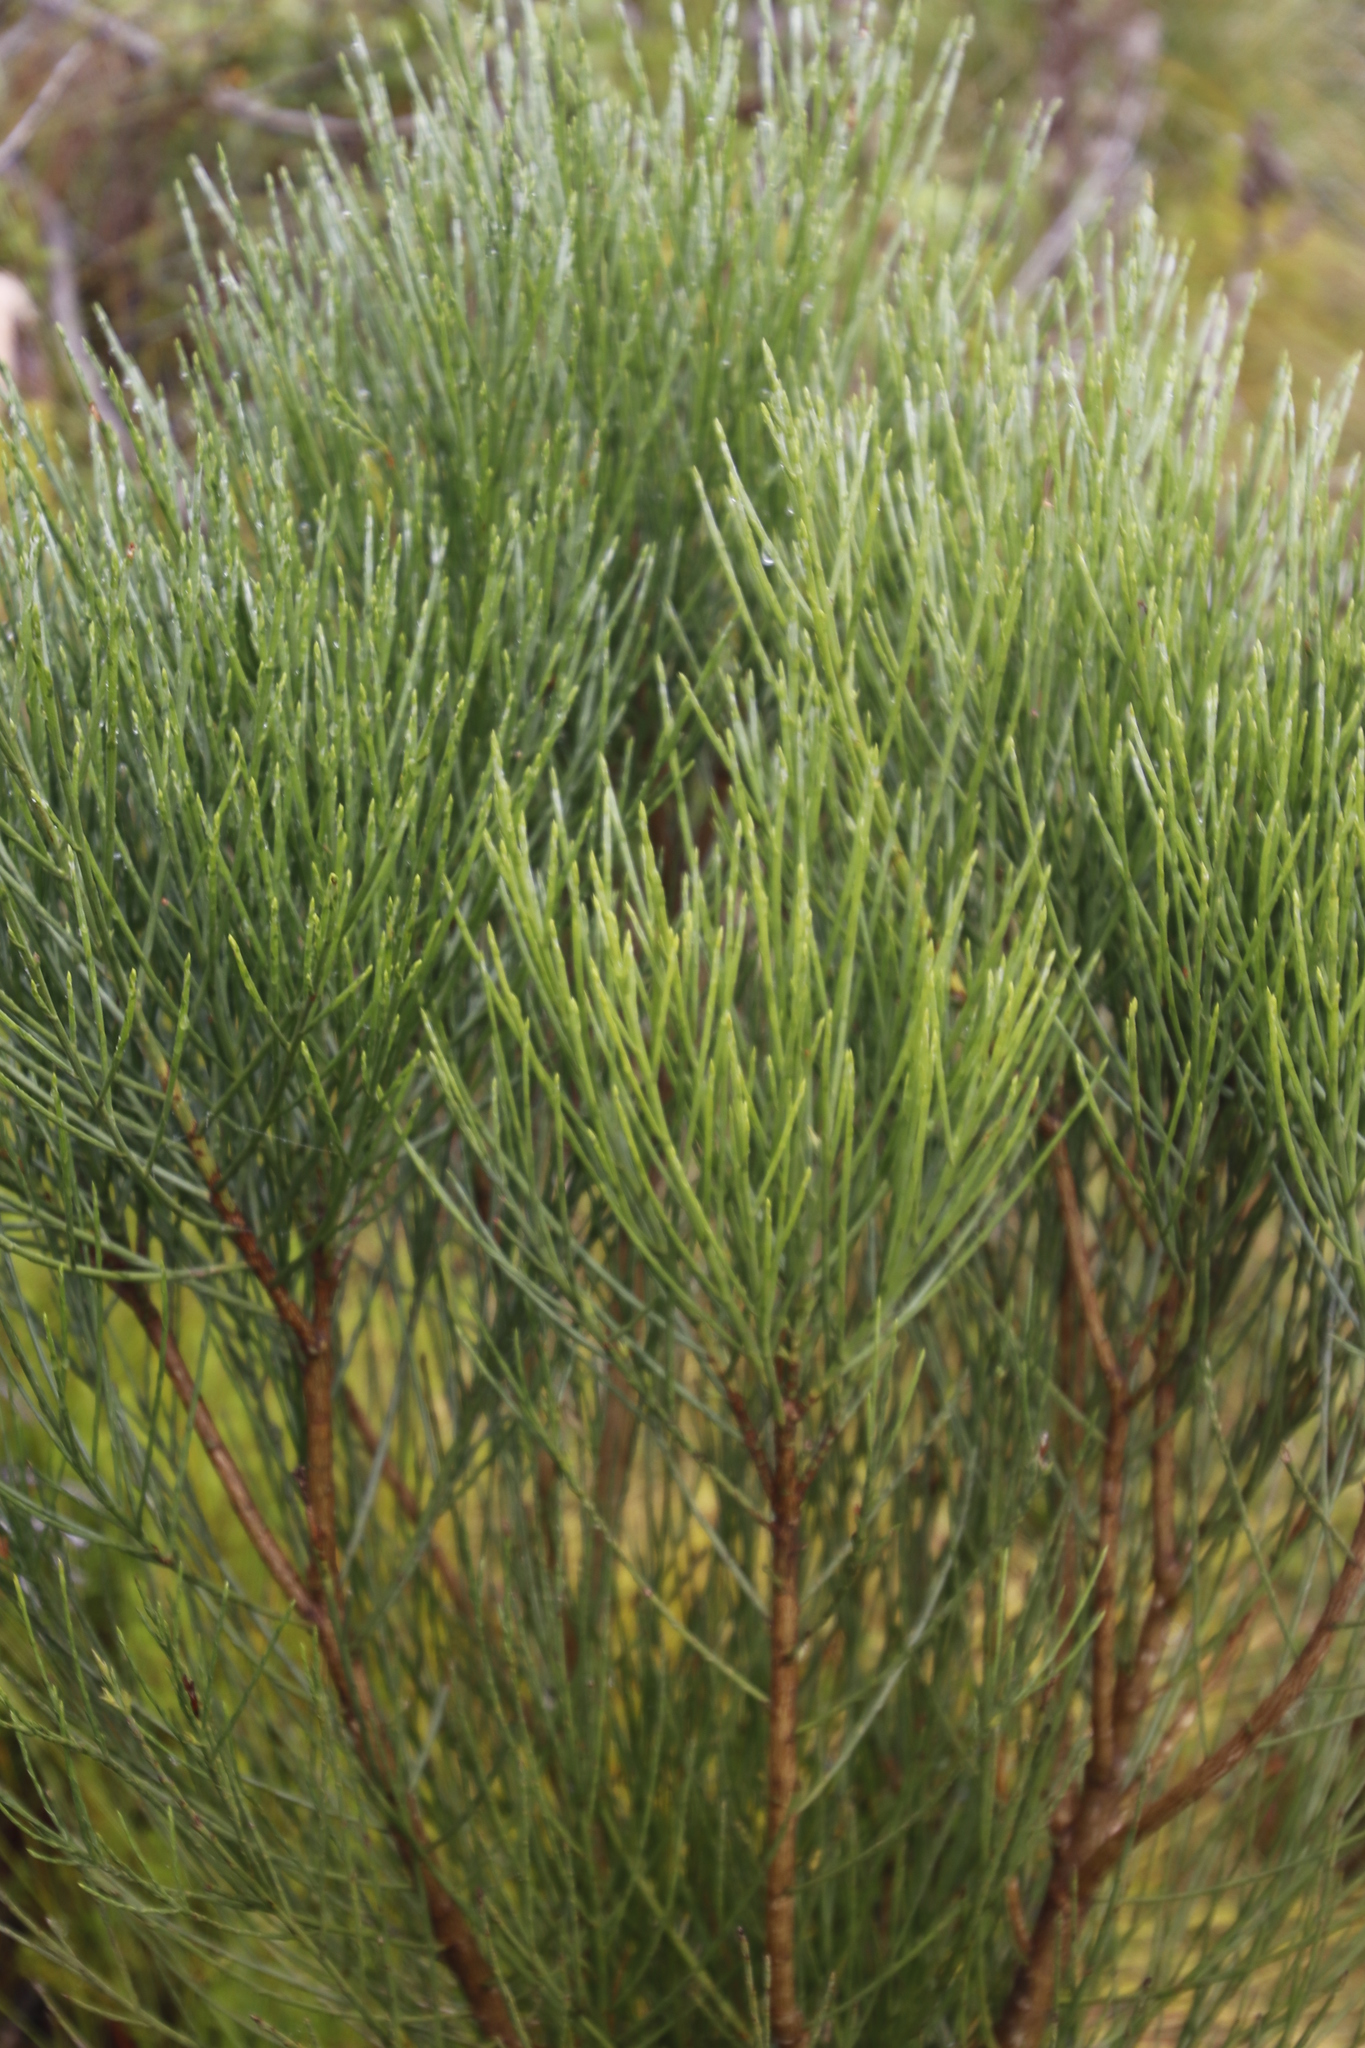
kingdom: Plantae
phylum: Tracheophyta
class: Magnoliopsida
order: Fabales
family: Fabaceae
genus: Psoralea
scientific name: Psoralea congesta
